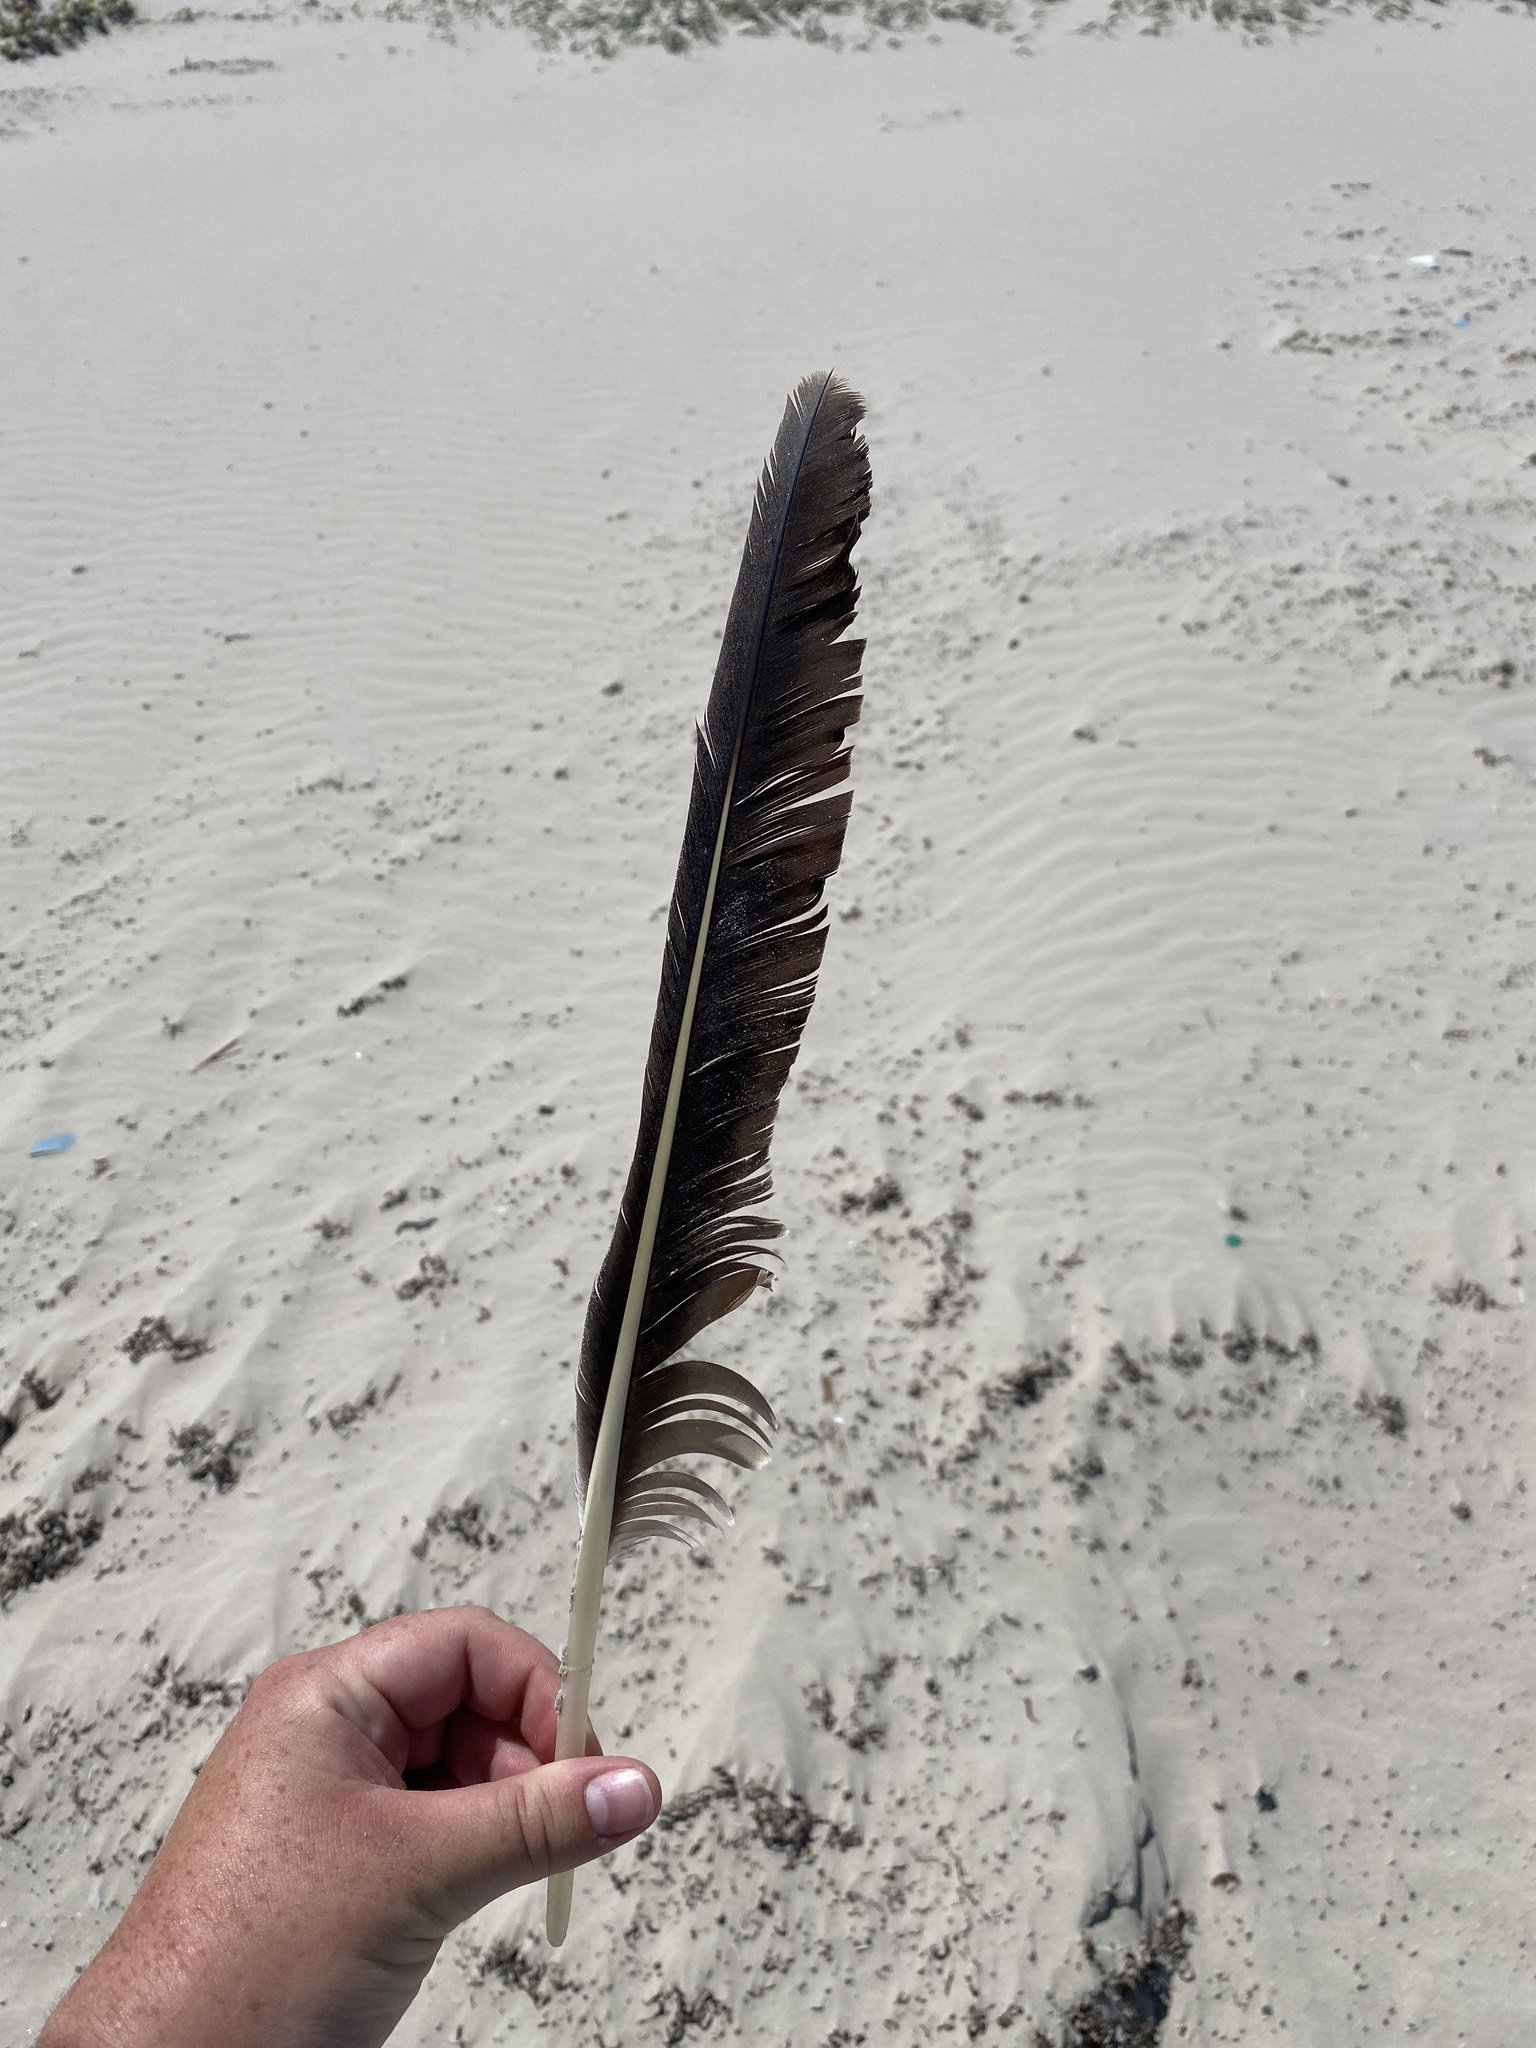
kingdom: Animalia
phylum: Chordata
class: Aves
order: Pelecaniformes
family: Pelecanidae
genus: Pelecanus
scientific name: Pelecanus occidentalis
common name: Brown pelican
